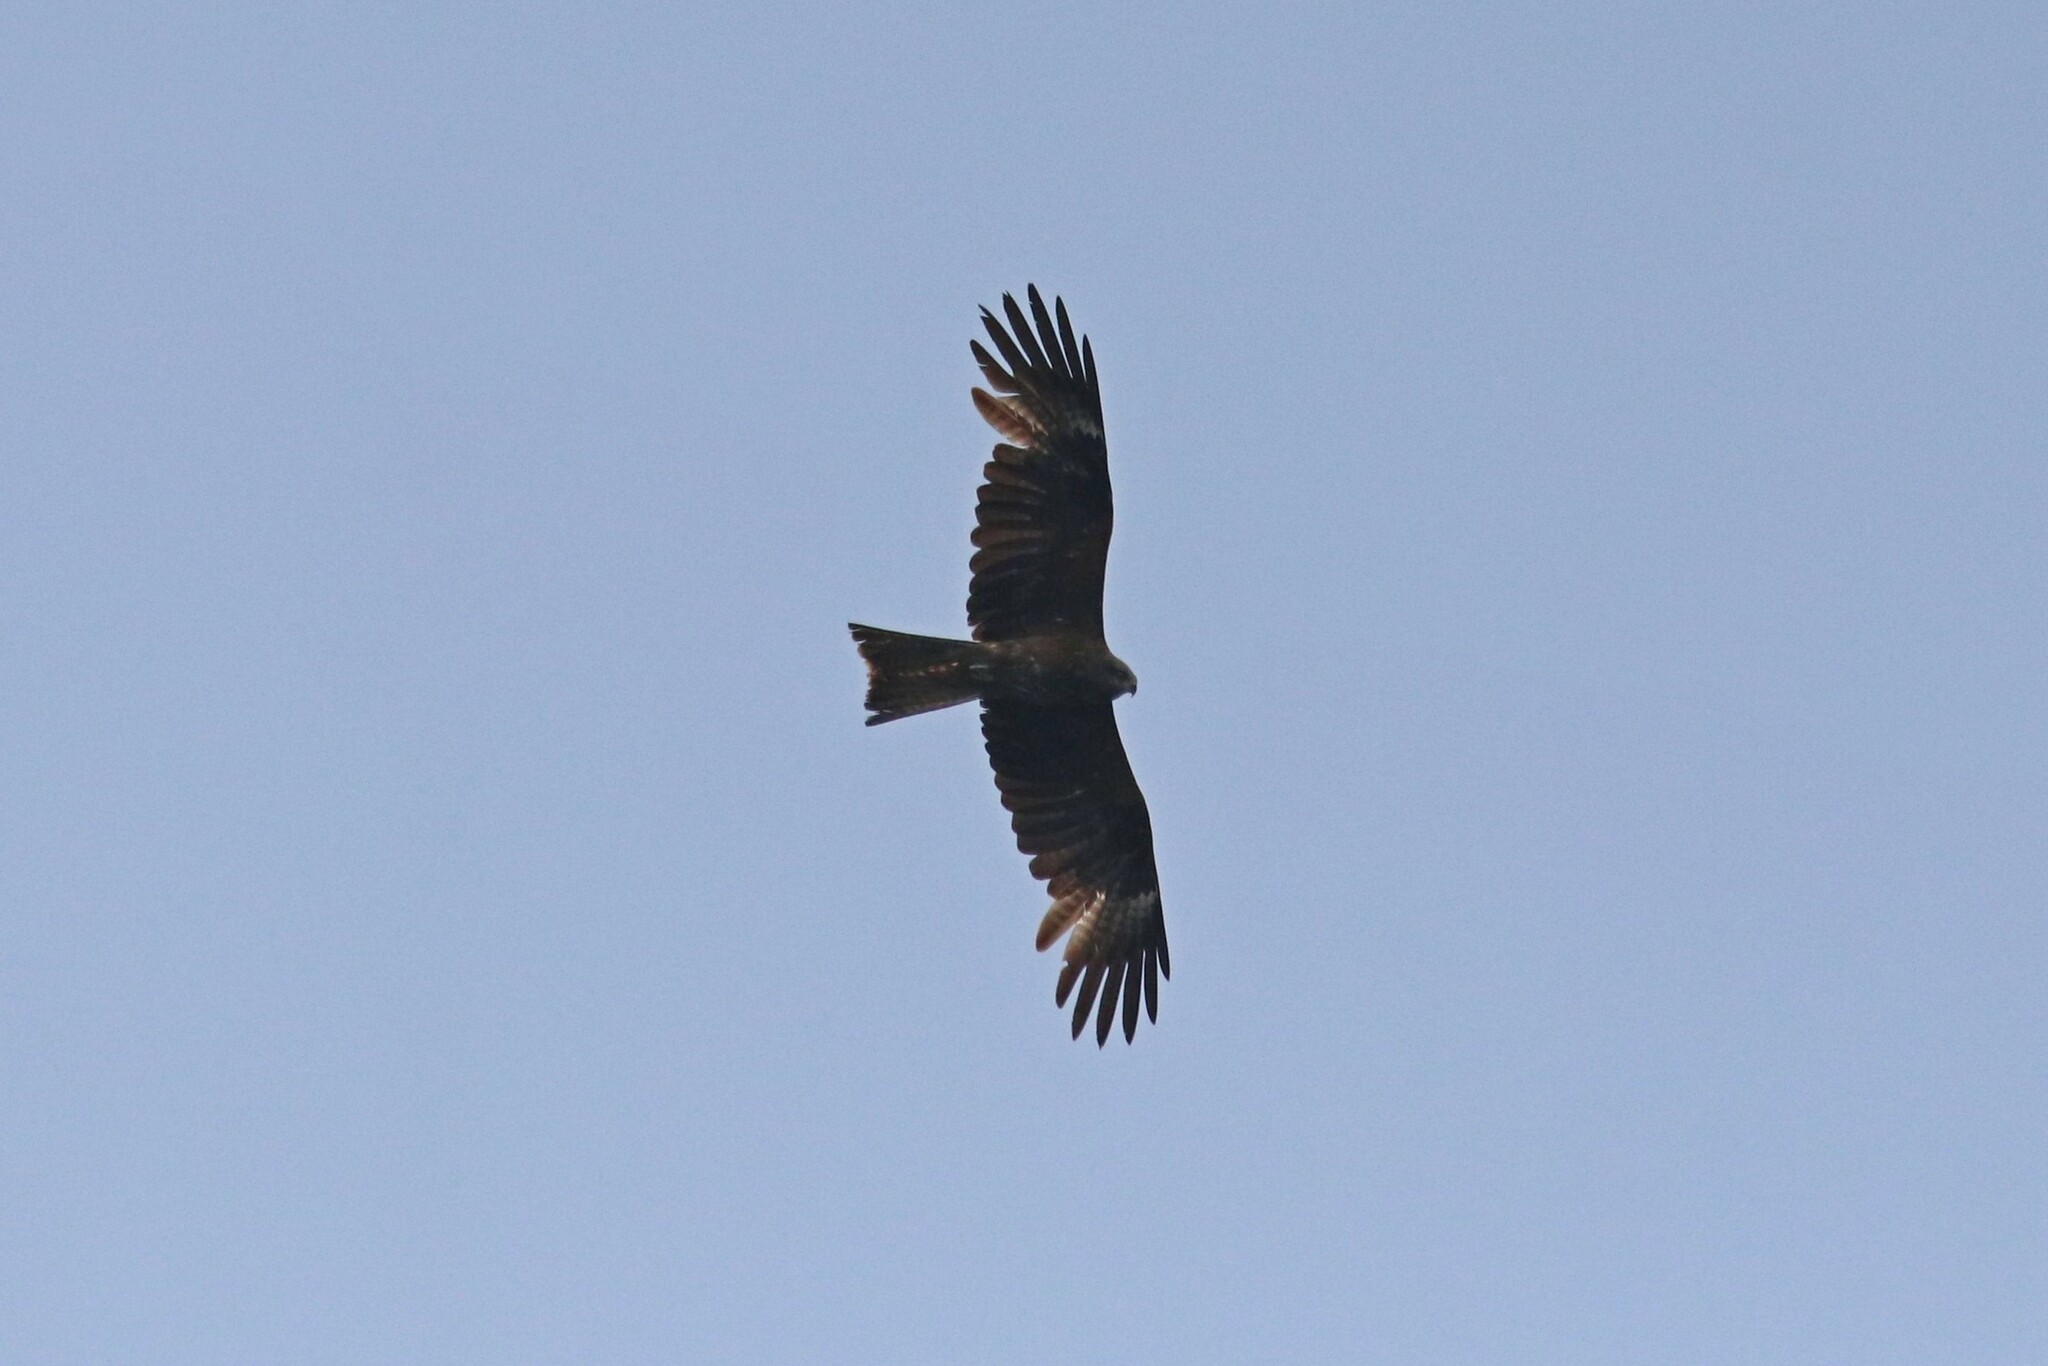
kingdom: Animalia
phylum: Chordata
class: Aves
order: Accipitriformes
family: Accipitridae
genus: Milvus
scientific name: Milvus migrans
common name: Black kite
